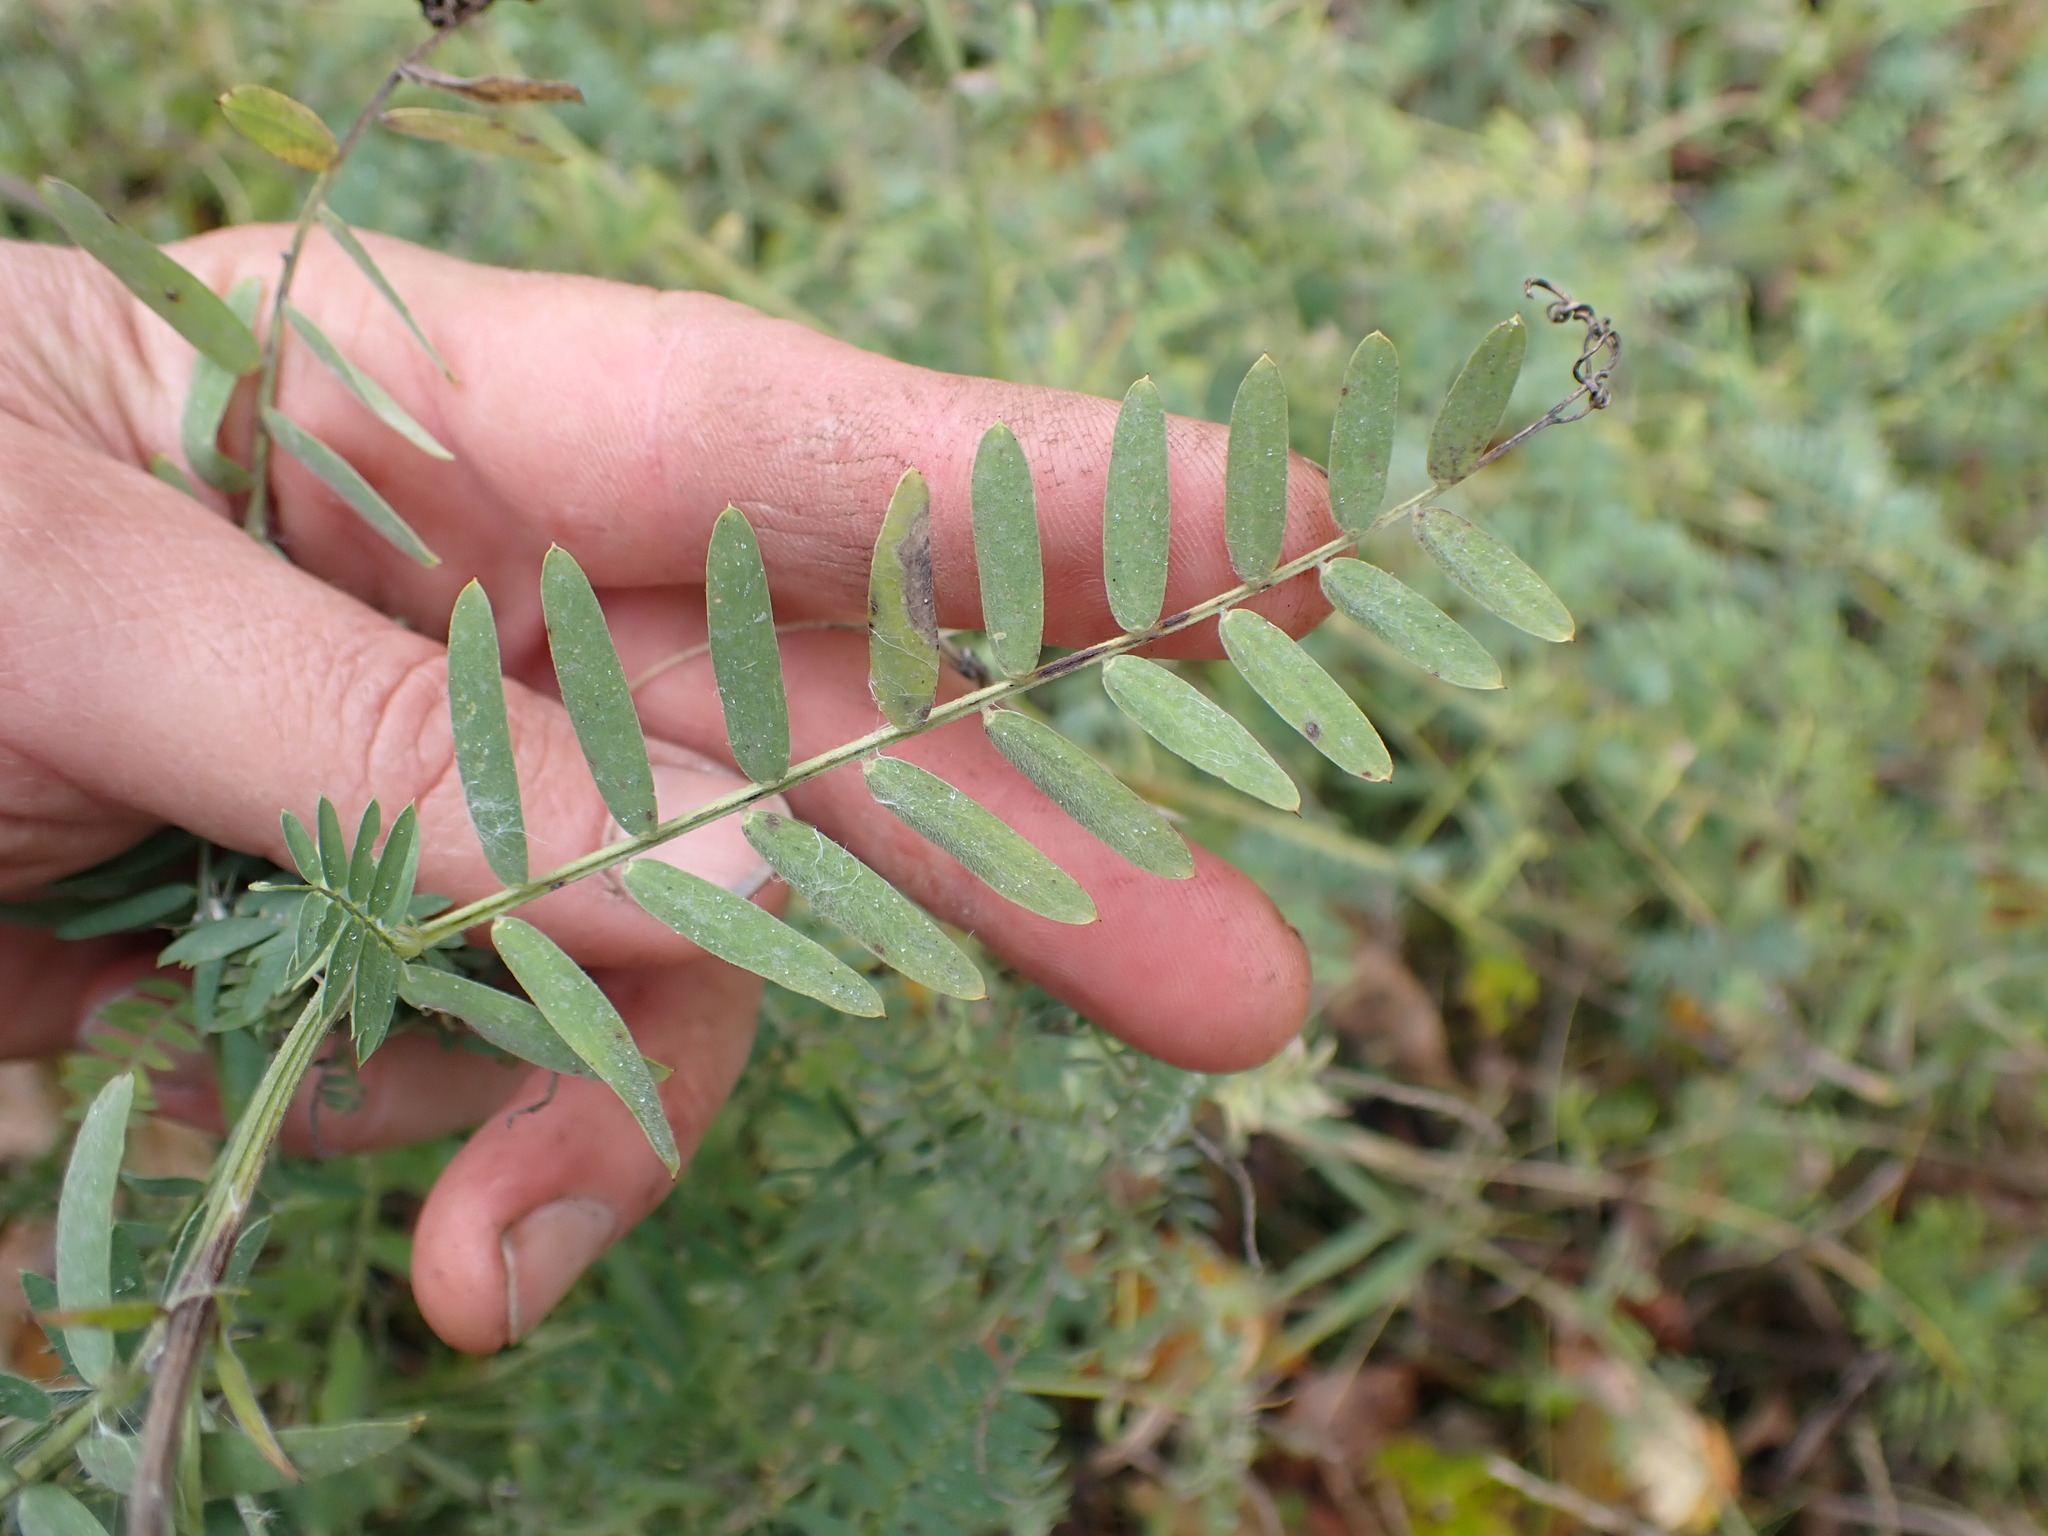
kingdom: Plantae
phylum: Tracheophyta
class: Magnoliopsida
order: Fabales
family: Fabaceae
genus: Vicia
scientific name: Vicia cracca
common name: Bird vetch
